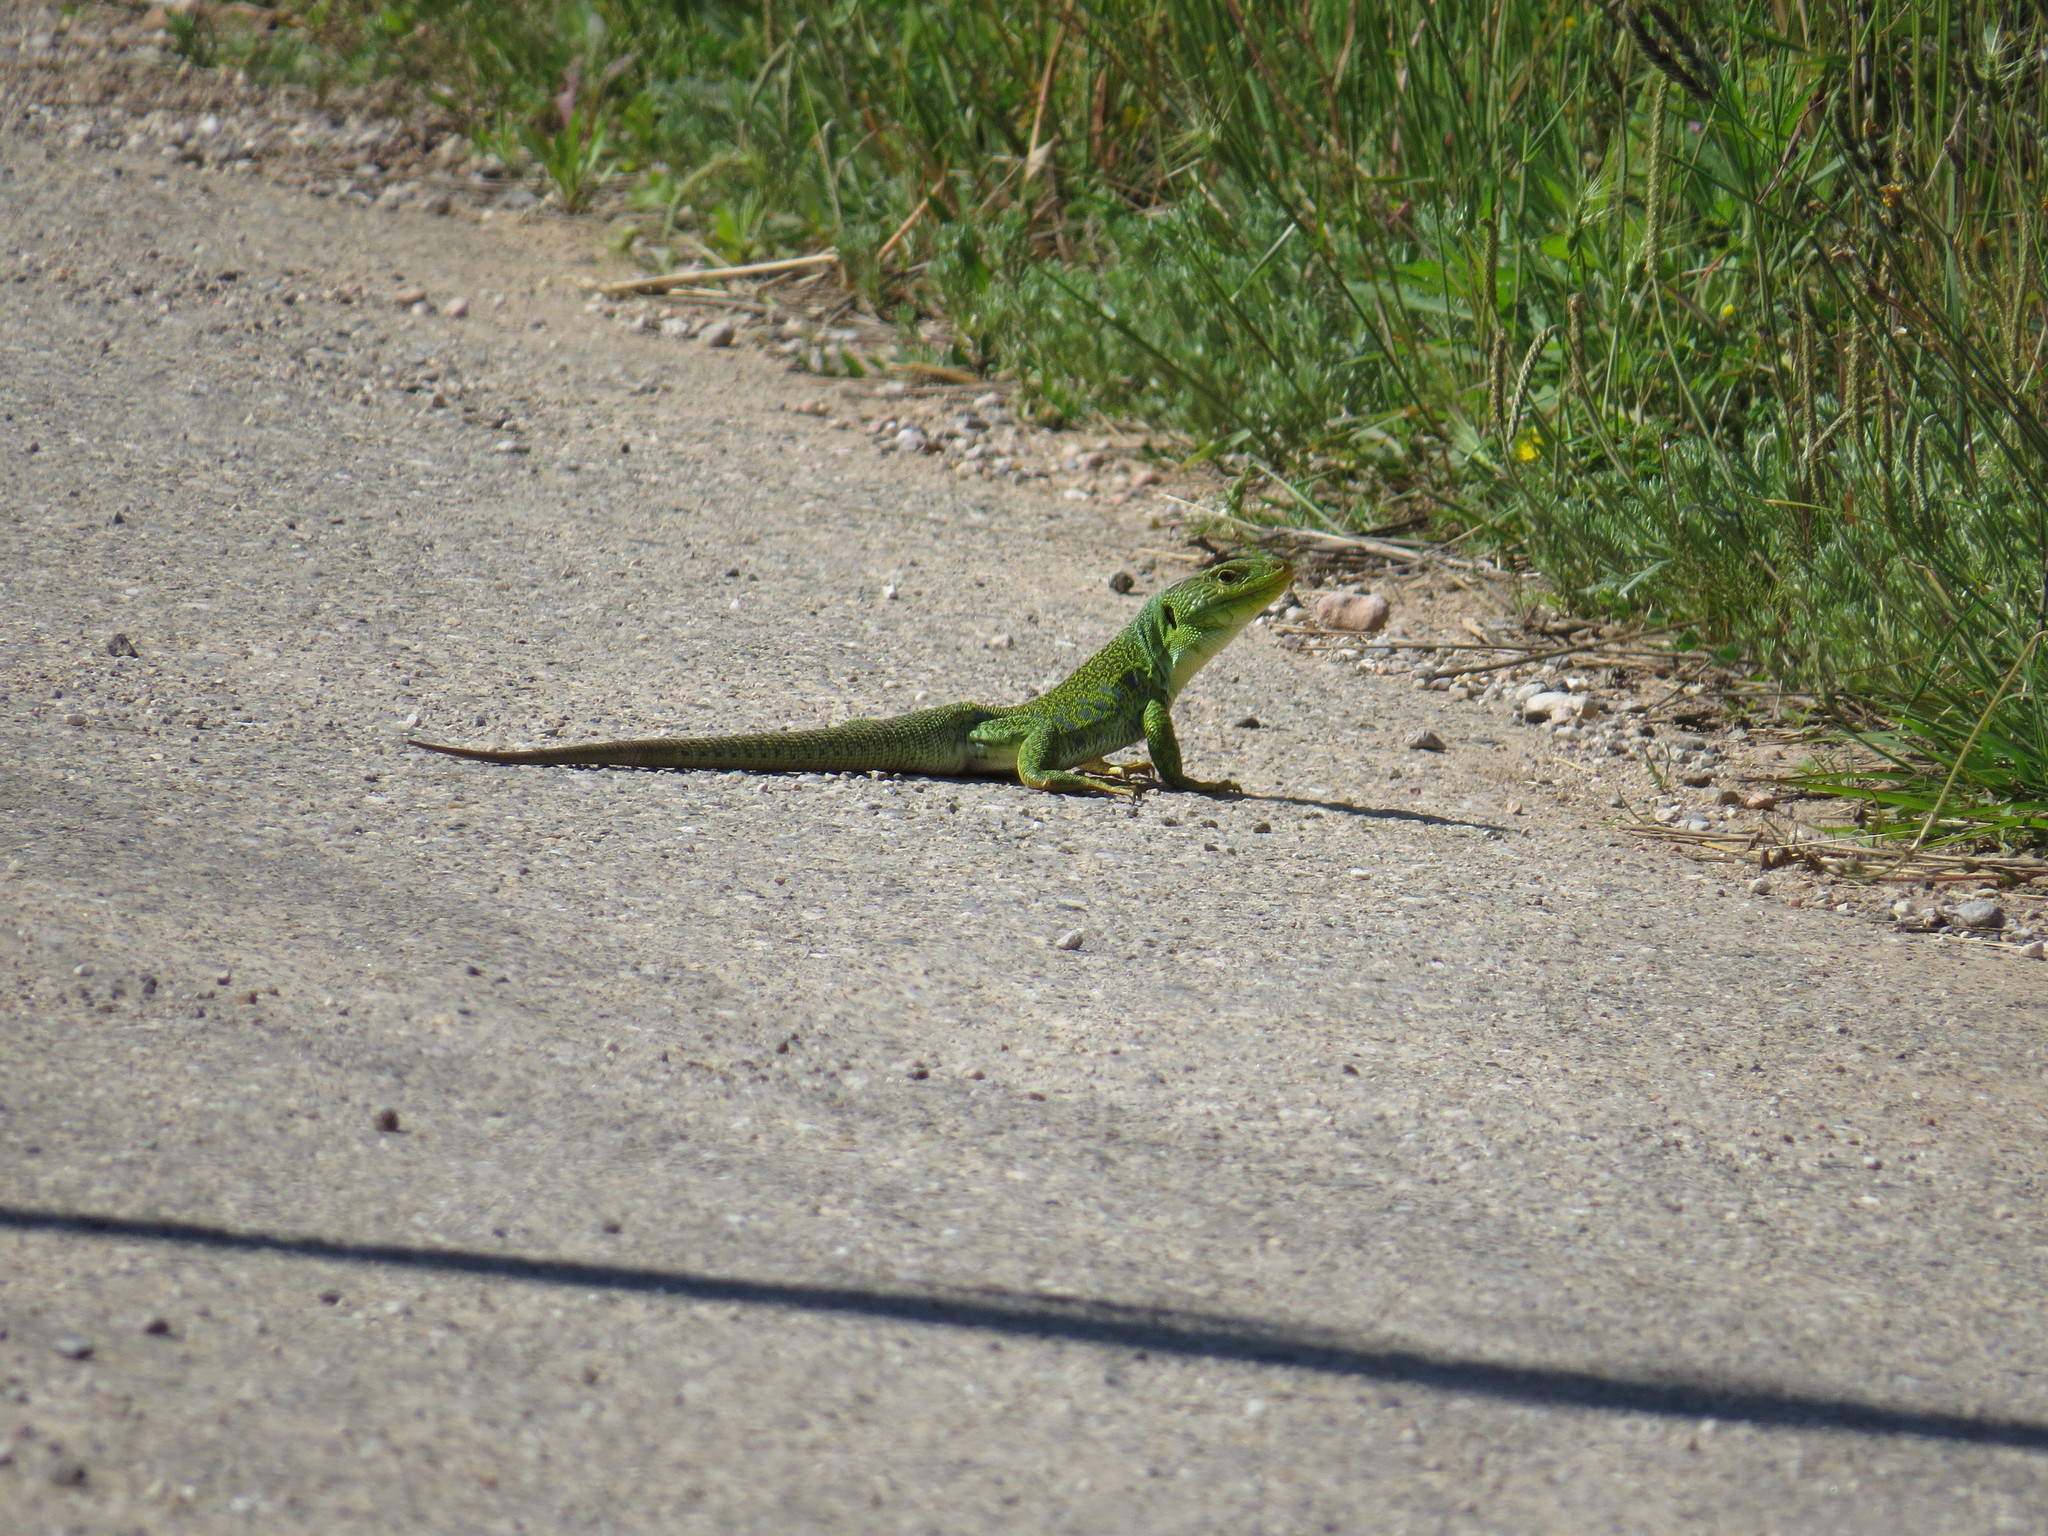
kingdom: Animalia
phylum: Chordata
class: Squamata
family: Lacertidae
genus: Timon
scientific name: Timon lepidus
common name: Ocellated lizard
